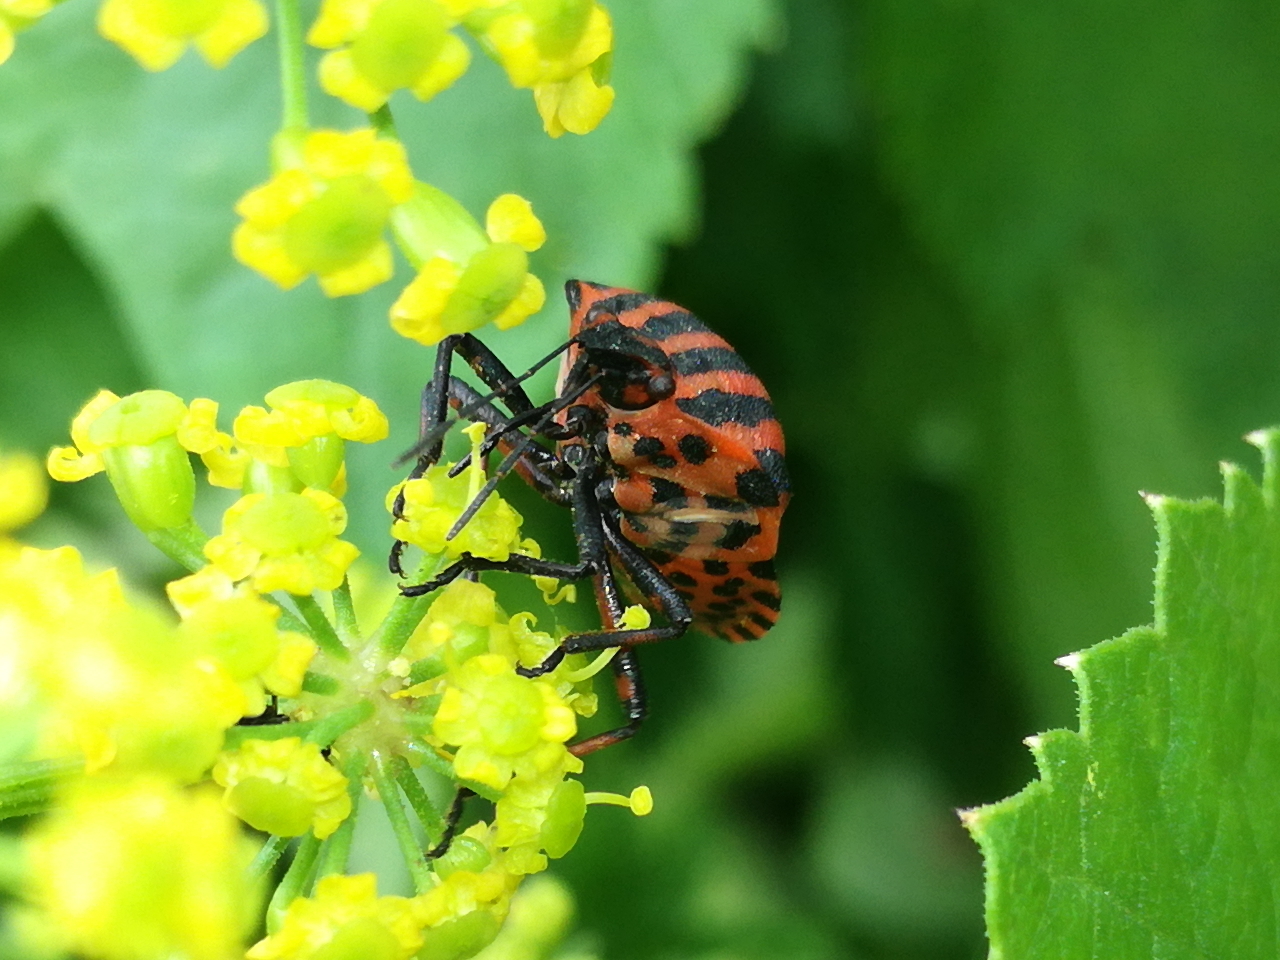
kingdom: Animalia
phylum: Arthropoda
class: Insecta
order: Hemiptera
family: Pentatomidae
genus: Graphosoma
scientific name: Graphosoma italicum
